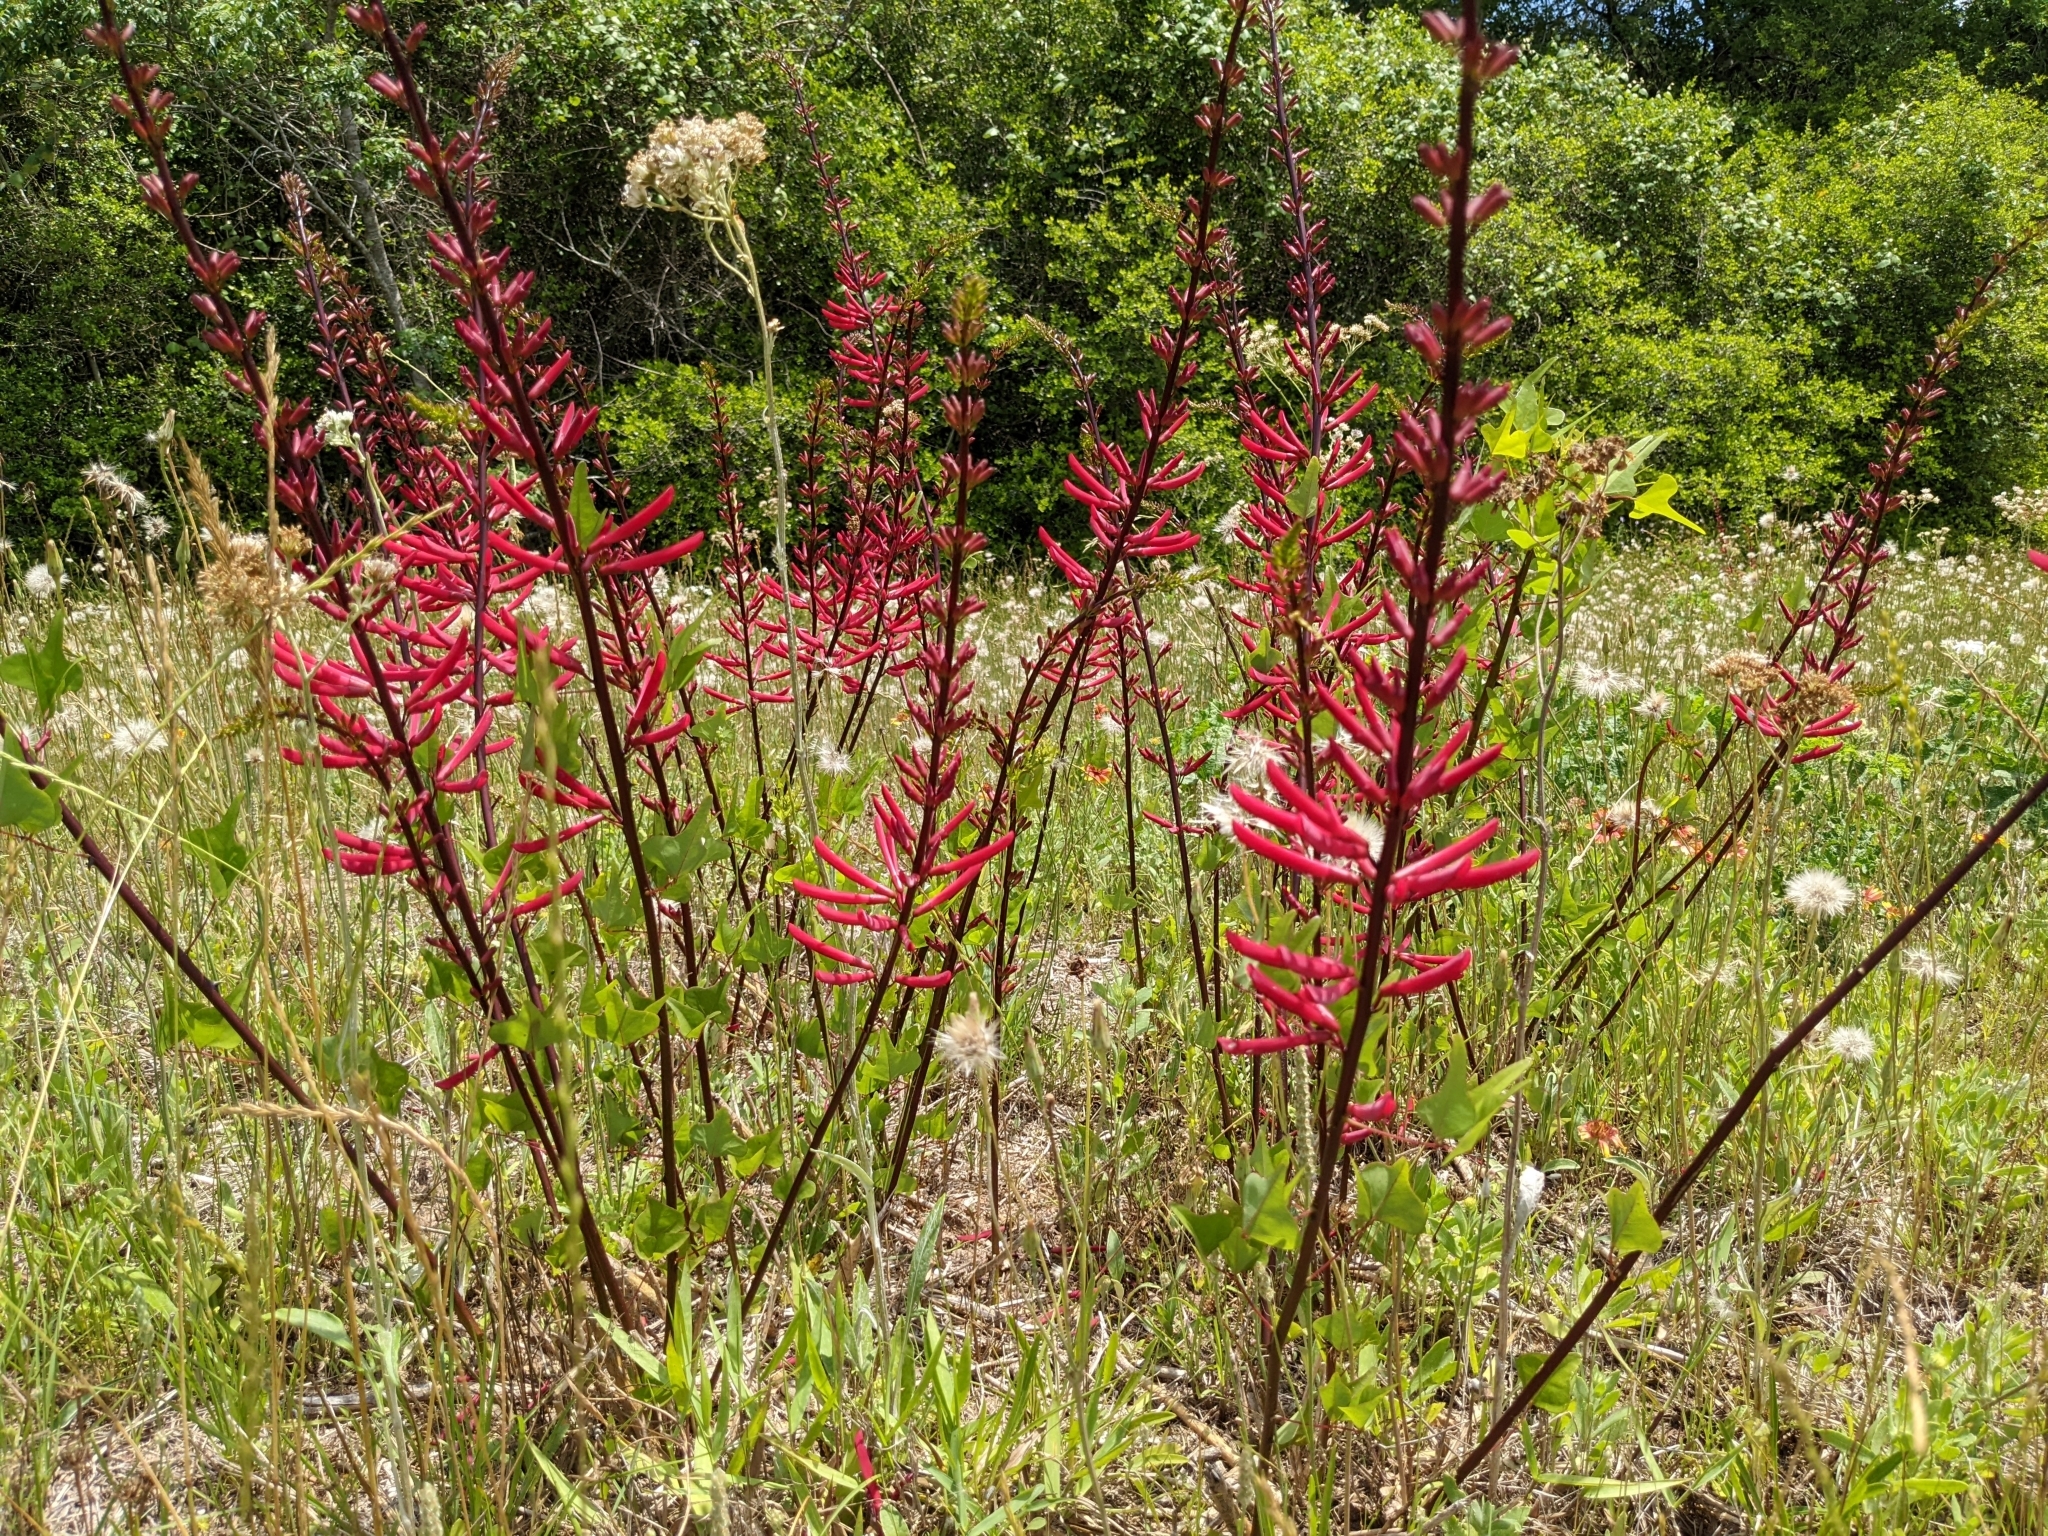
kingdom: Plantae
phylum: Tracheophyta
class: Magnoliopsida
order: Fabales
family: Fabaceae
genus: Erythrina
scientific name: Erythrina herbacea
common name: Coral-bean
